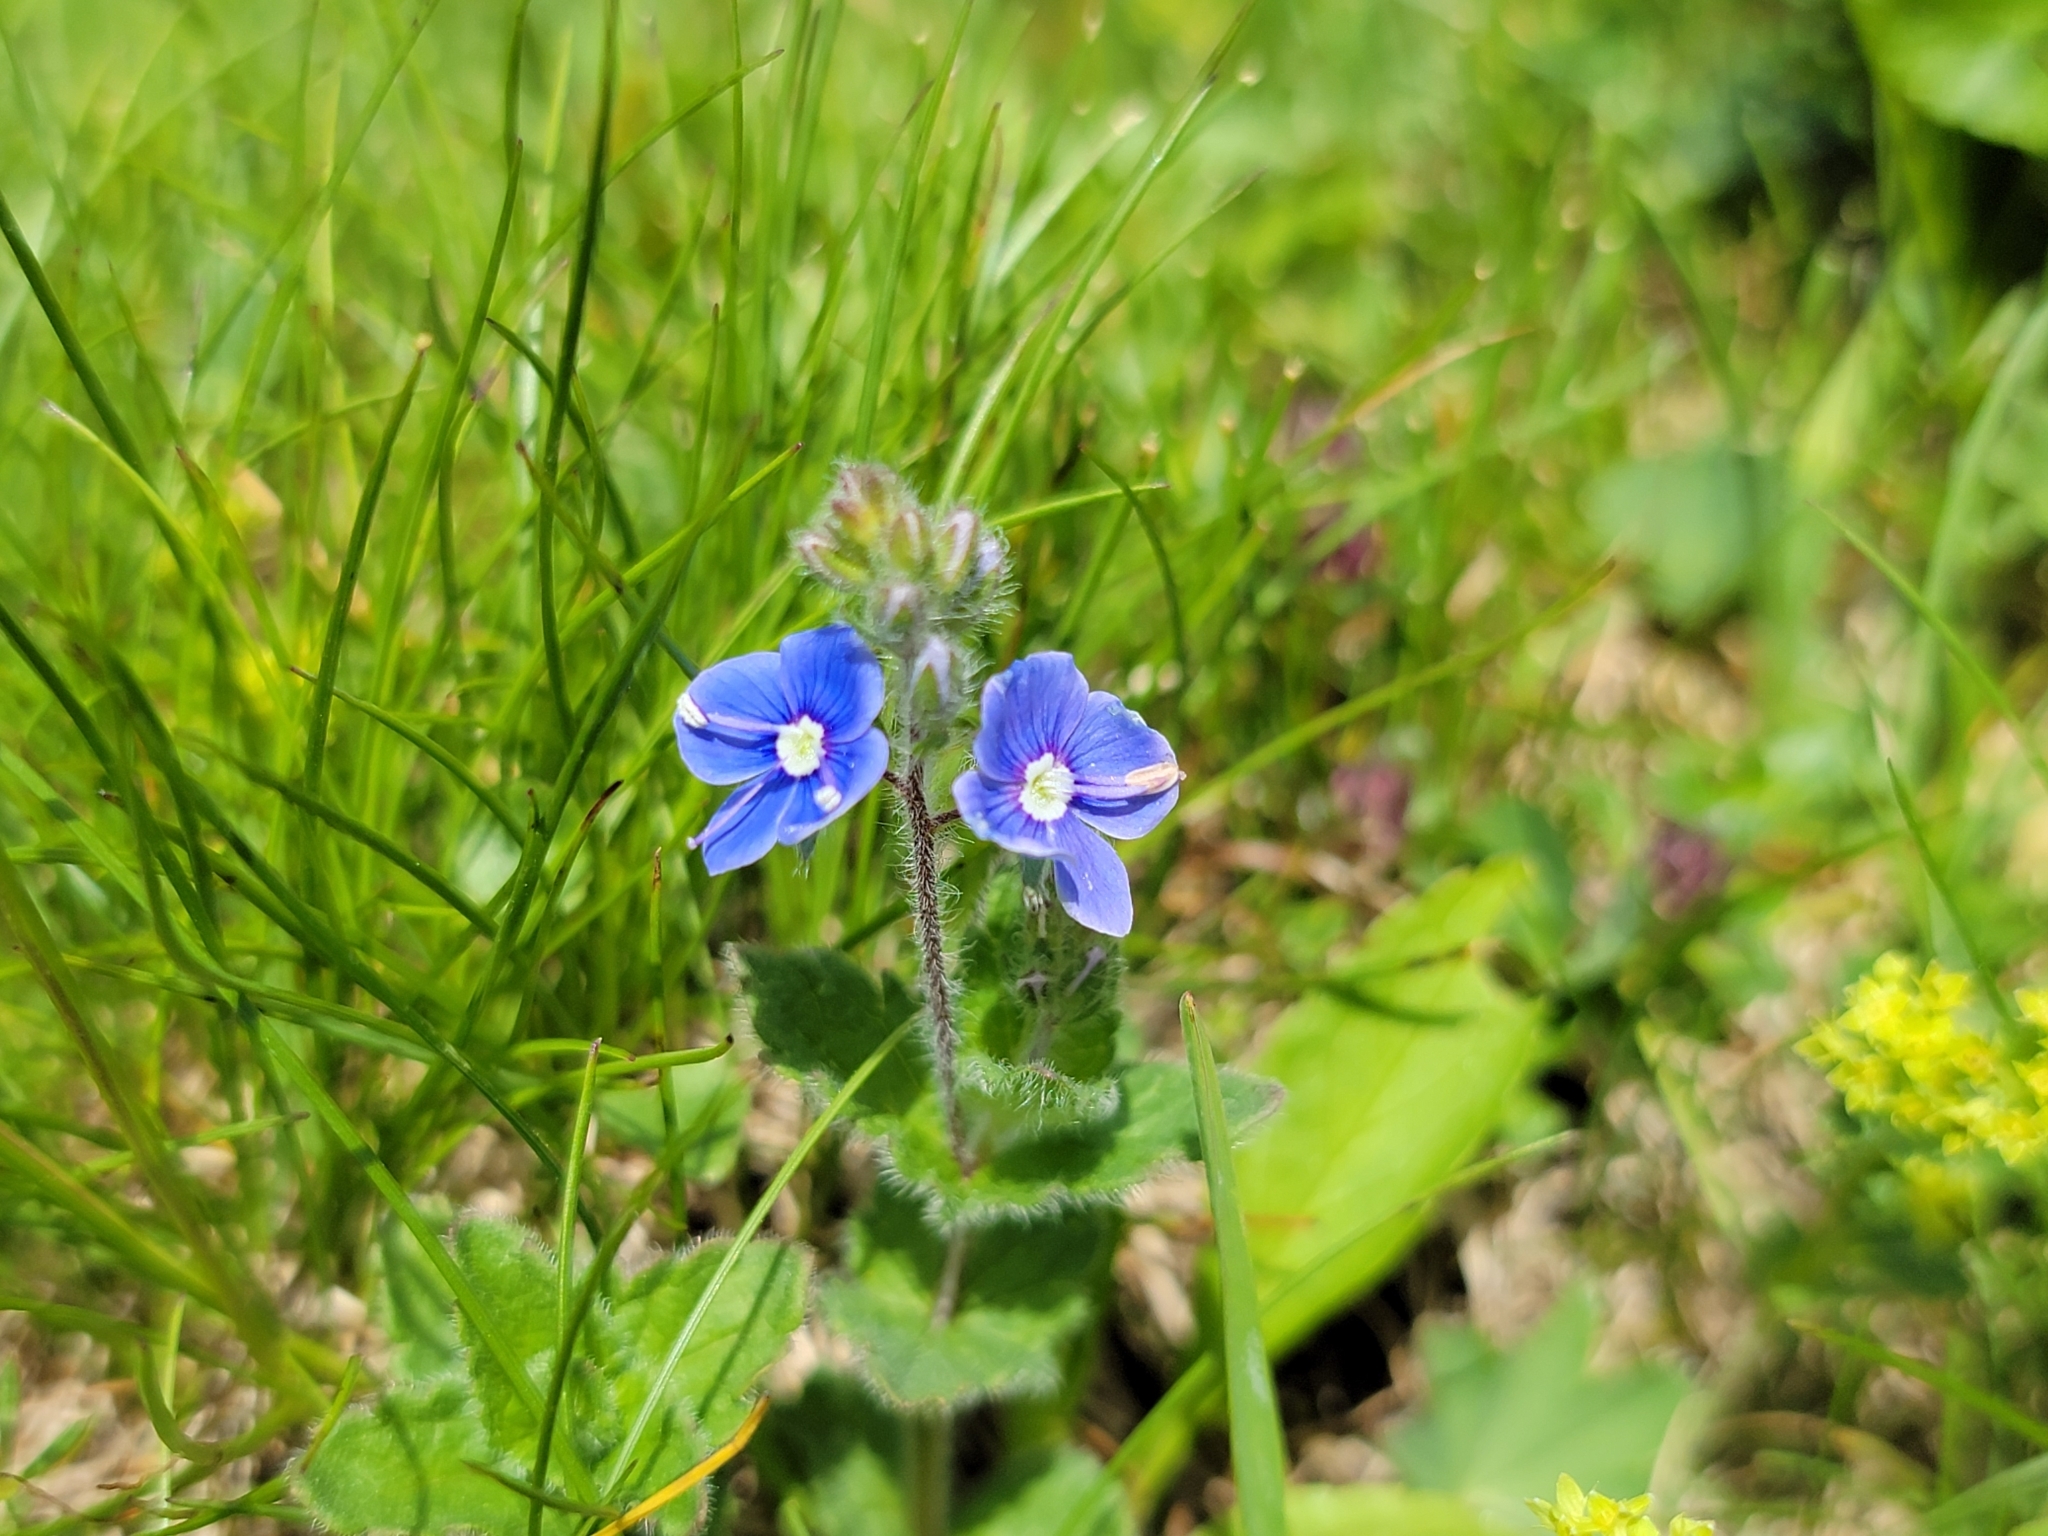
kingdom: Plantae
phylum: Tracheophyta
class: Magnoliopsida
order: Lamiales
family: Plantaginaceae
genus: Veronica
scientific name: Veronica chamaedrys
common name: Germander speedwell
